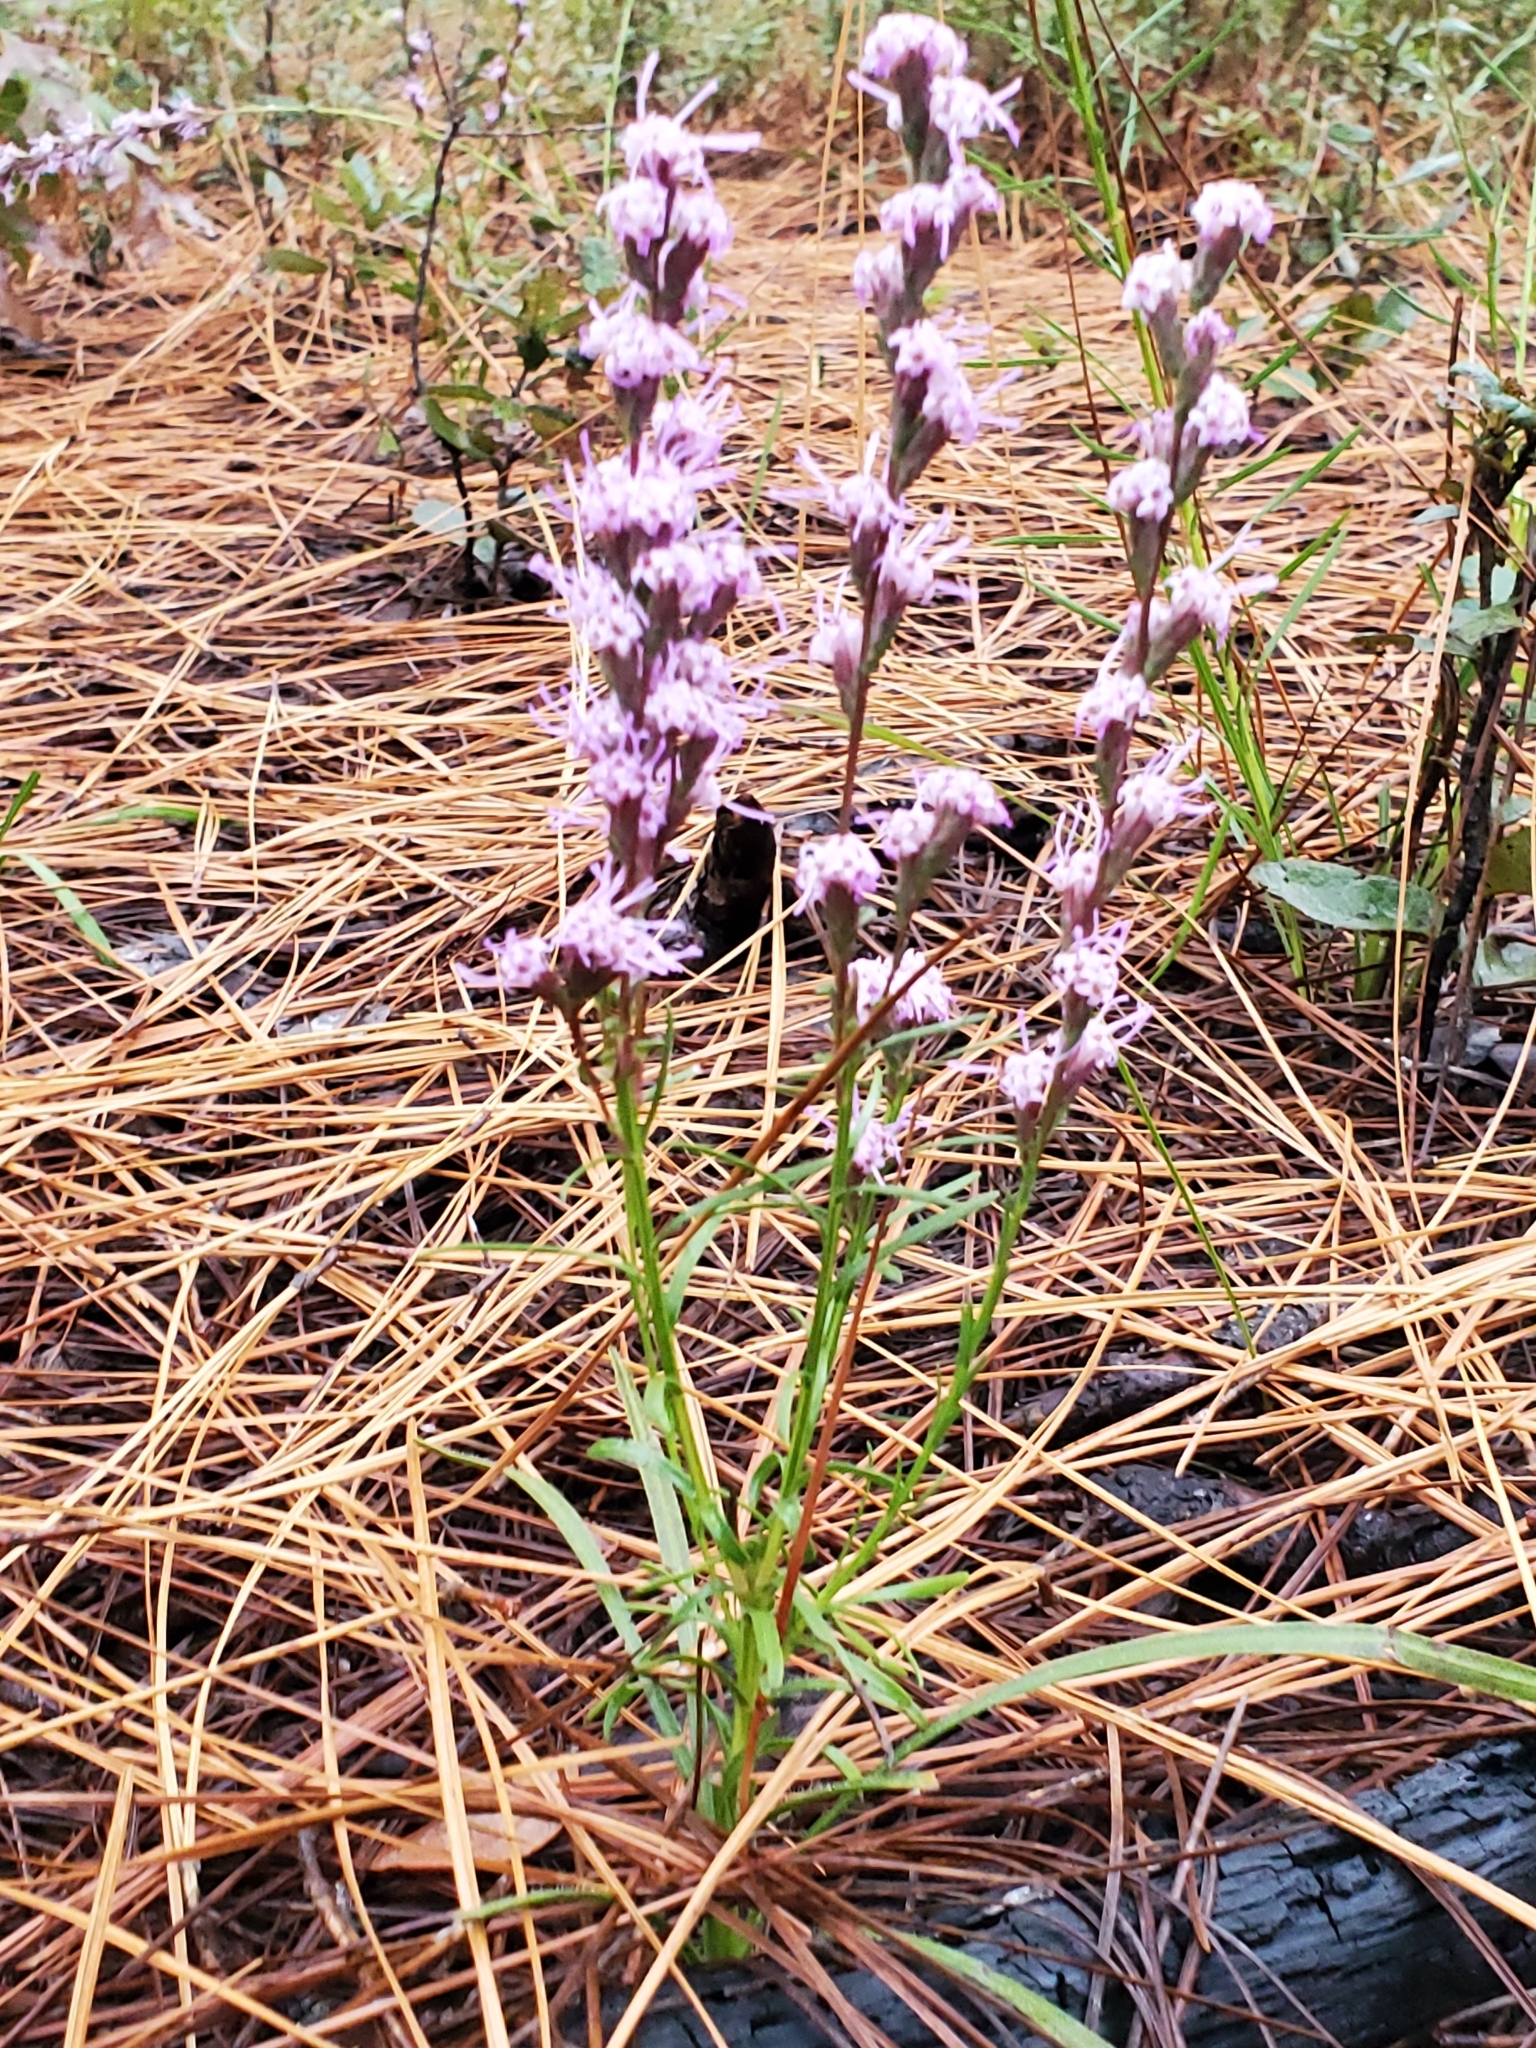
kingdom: Plantae
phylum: Tracheophyta
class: Magnoliopsida
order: Asterales
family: Asteraceae
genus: Liatris
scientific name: Liatris spicata
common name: Florist gayfeather
